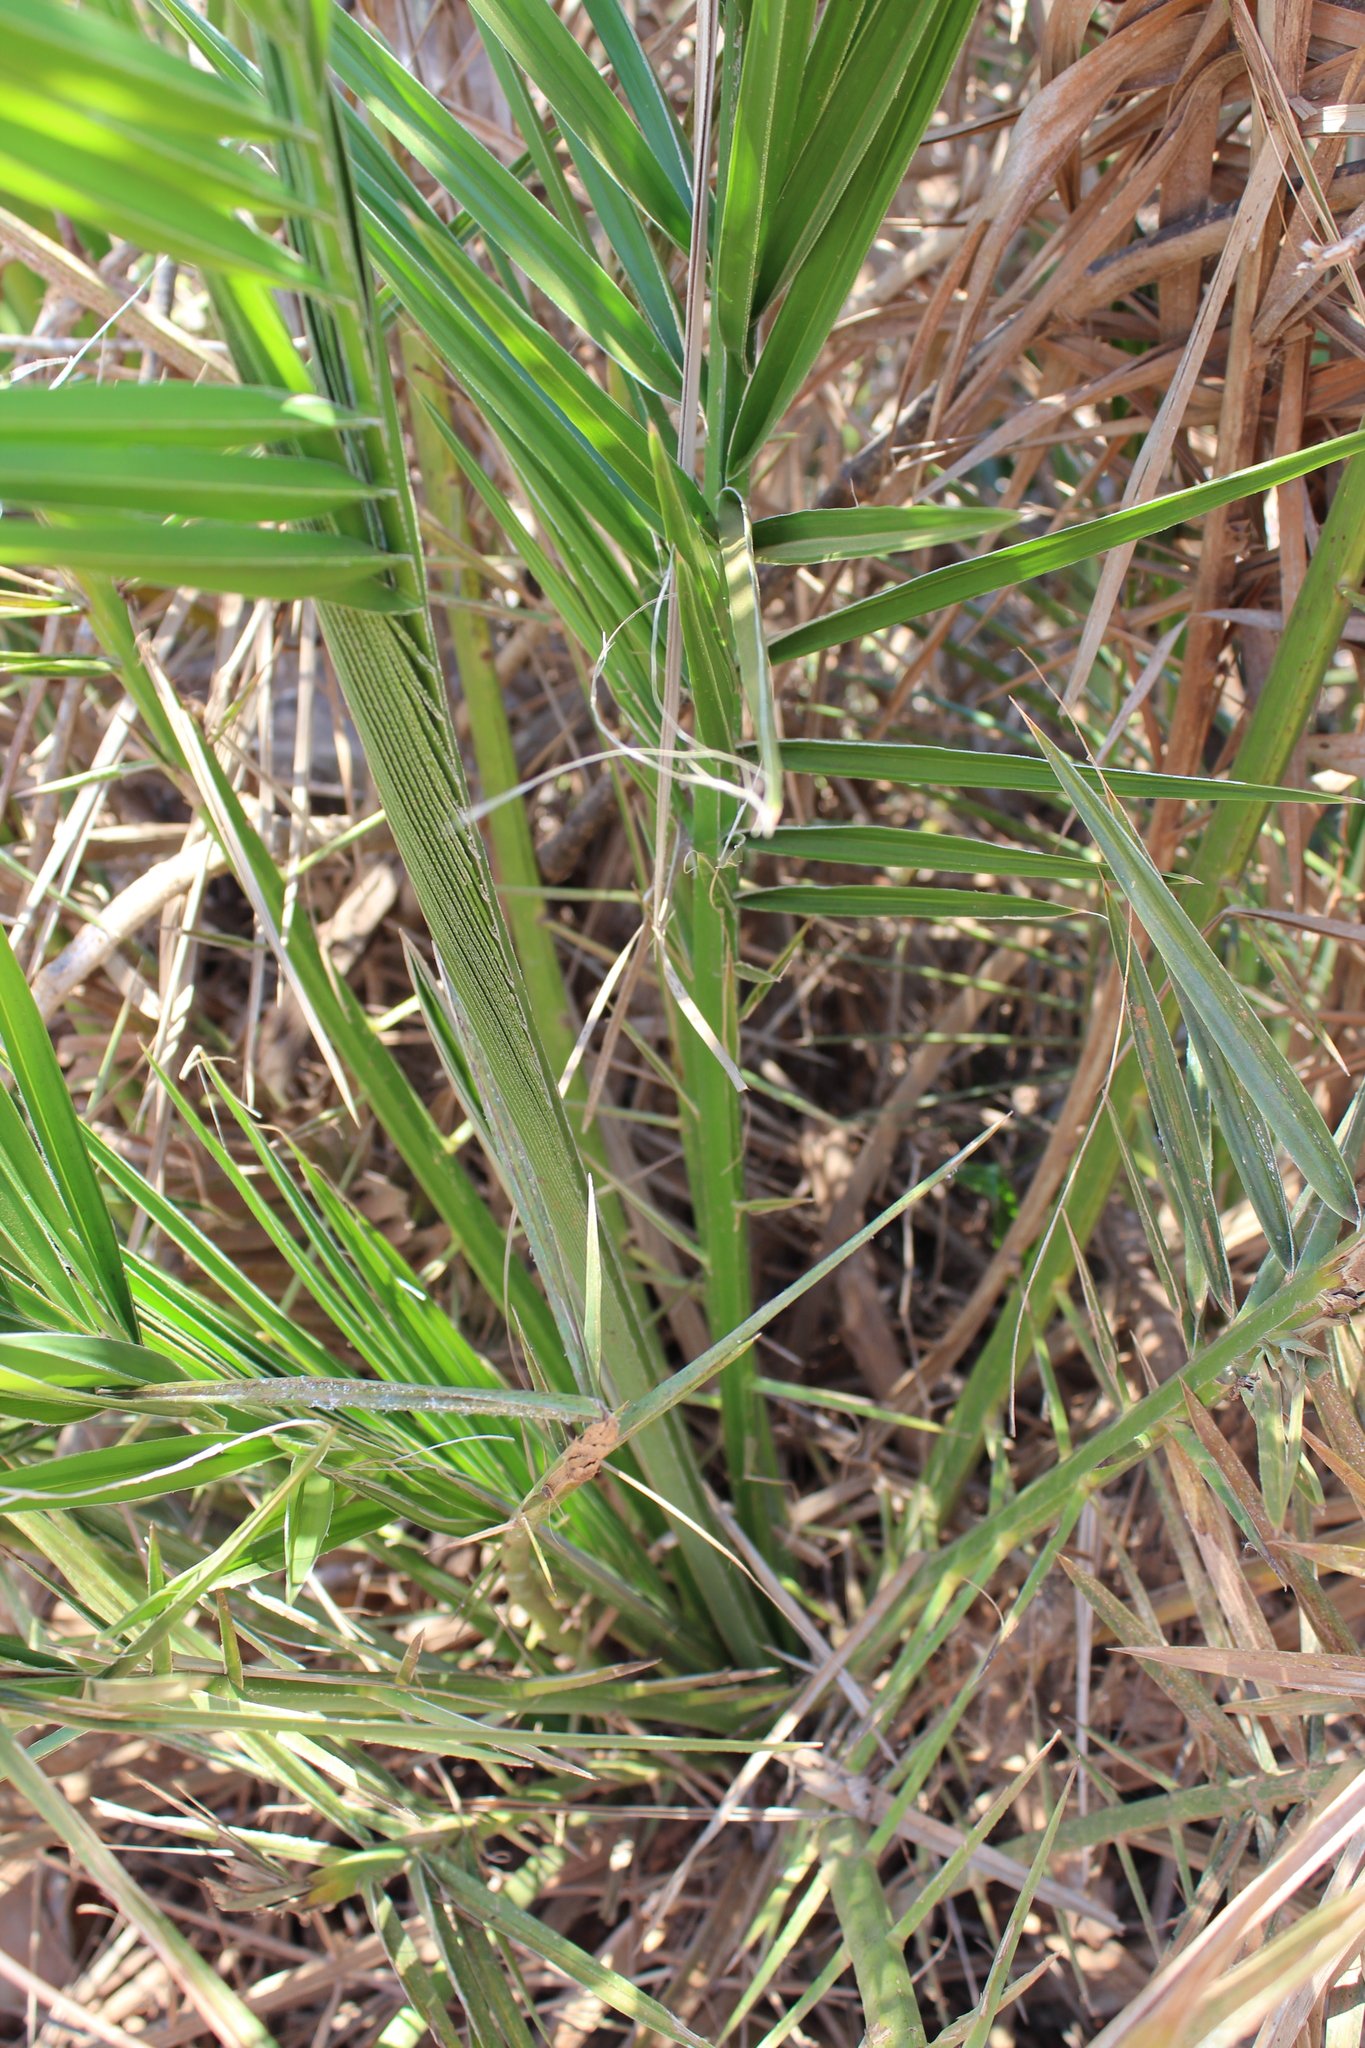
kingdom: Plantae
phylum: Tracheophyta
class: Liliopsida
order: Arecales
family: Arecaceae
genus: Phoenix
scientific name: Phoenix reclinata
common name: Senegal date palm
